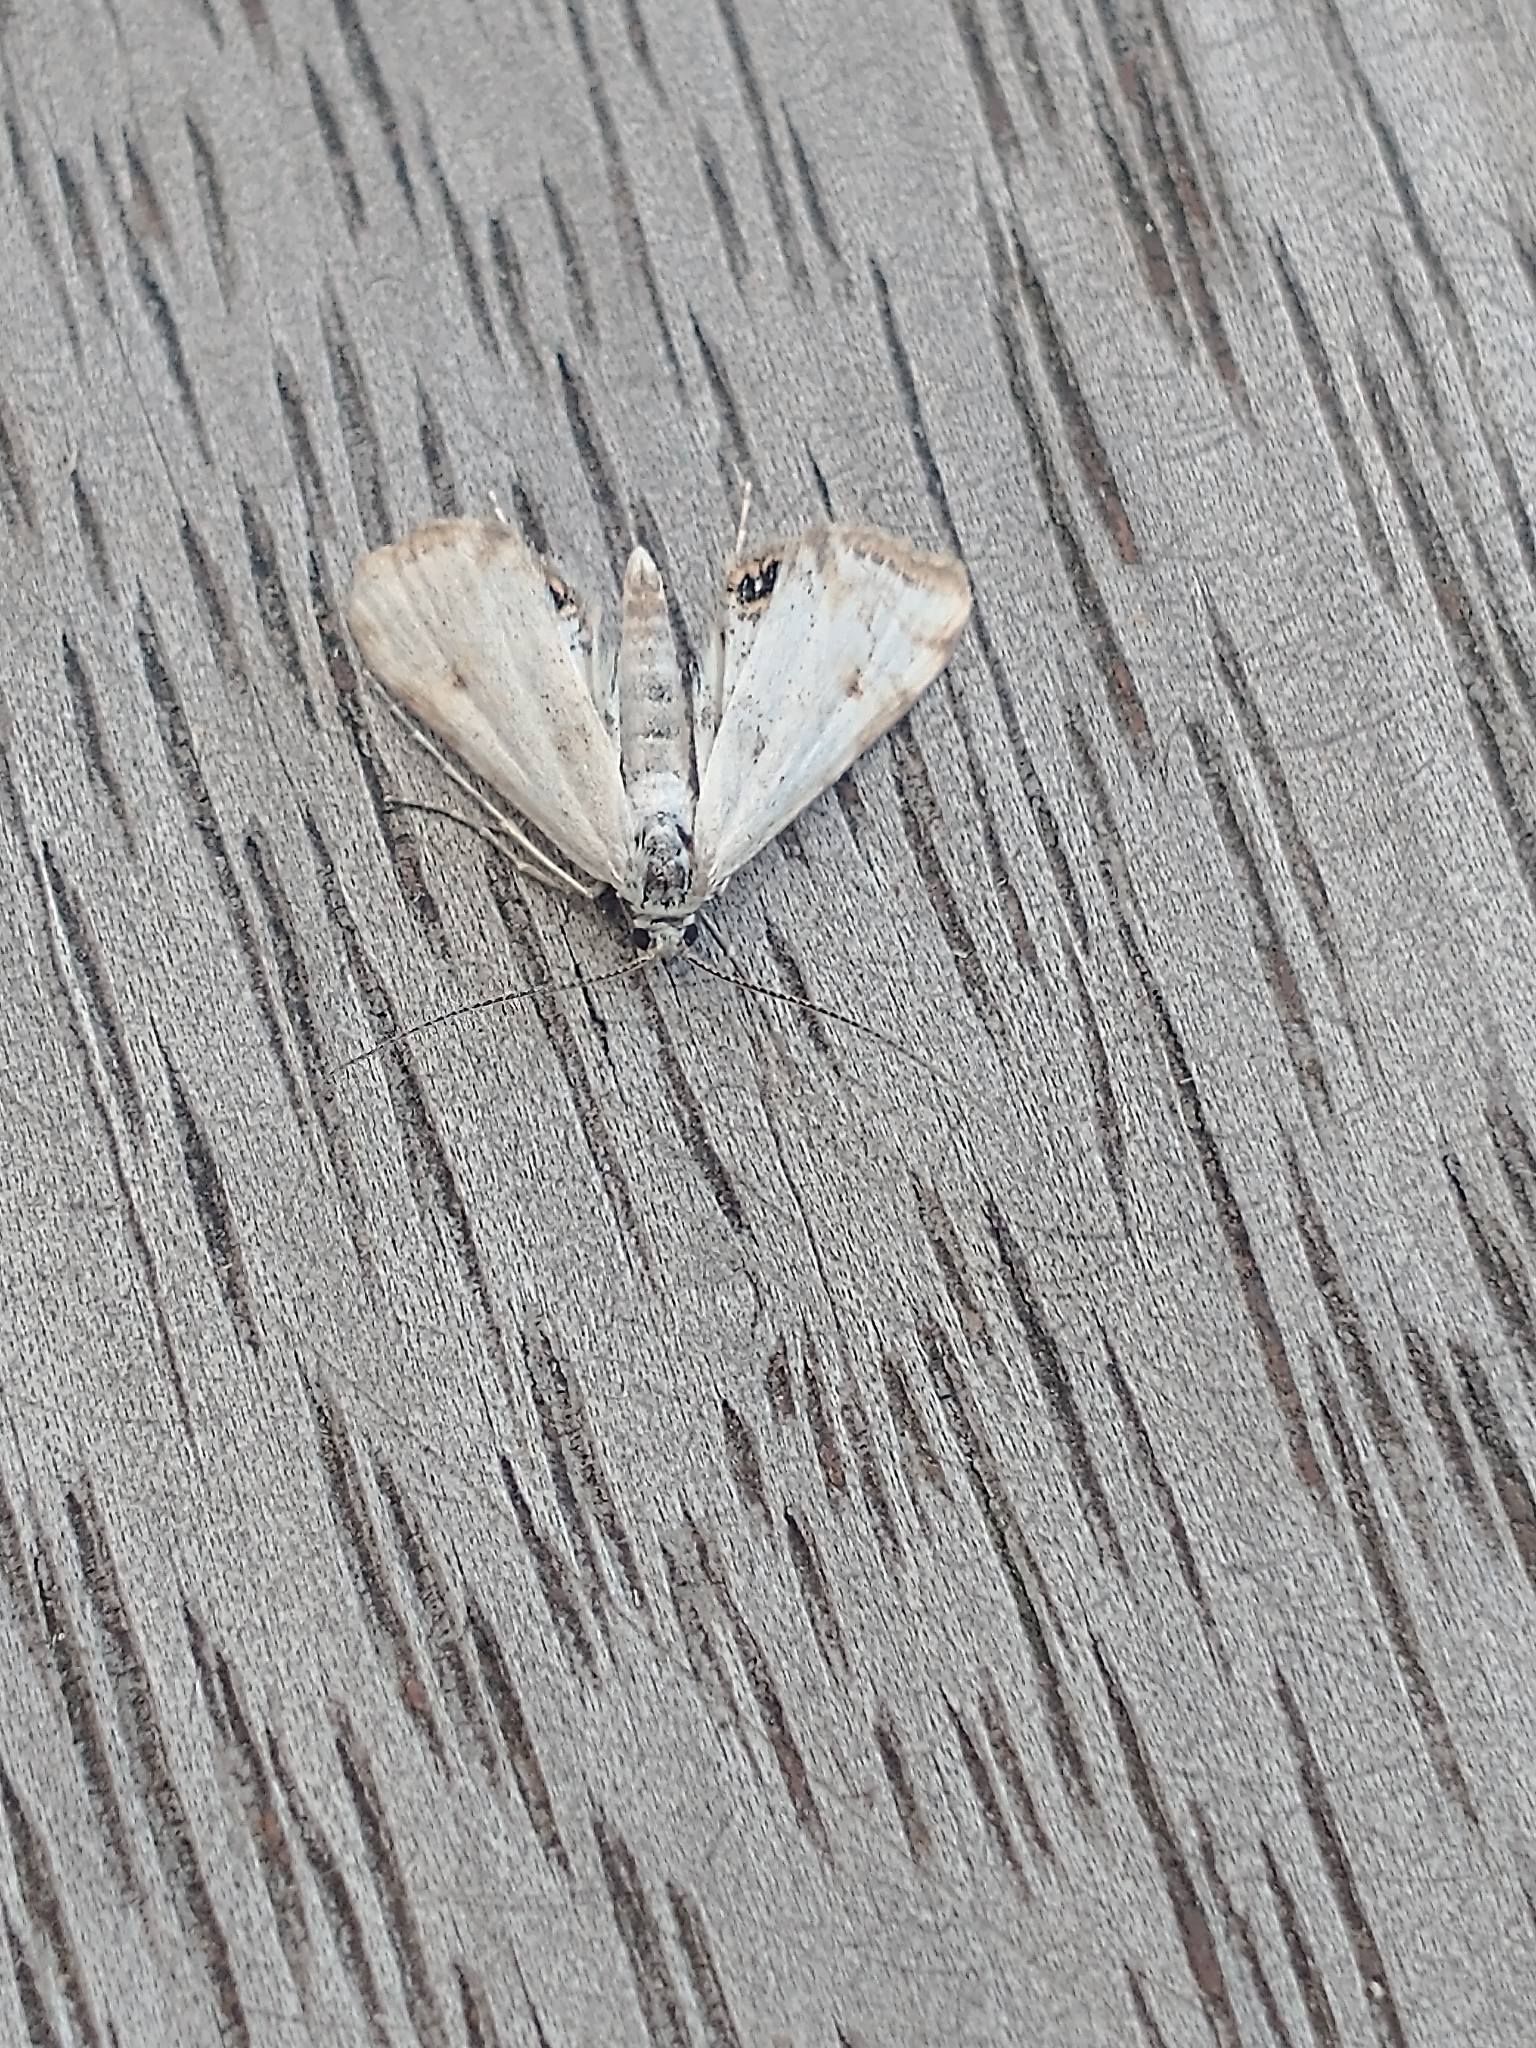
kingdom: Animalia
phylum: Arthropoda
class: Insecta
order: Lepidoptera
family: Crambidae
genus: Cataclysta
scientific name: Cataclysta lemnata
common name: Small china-mark
